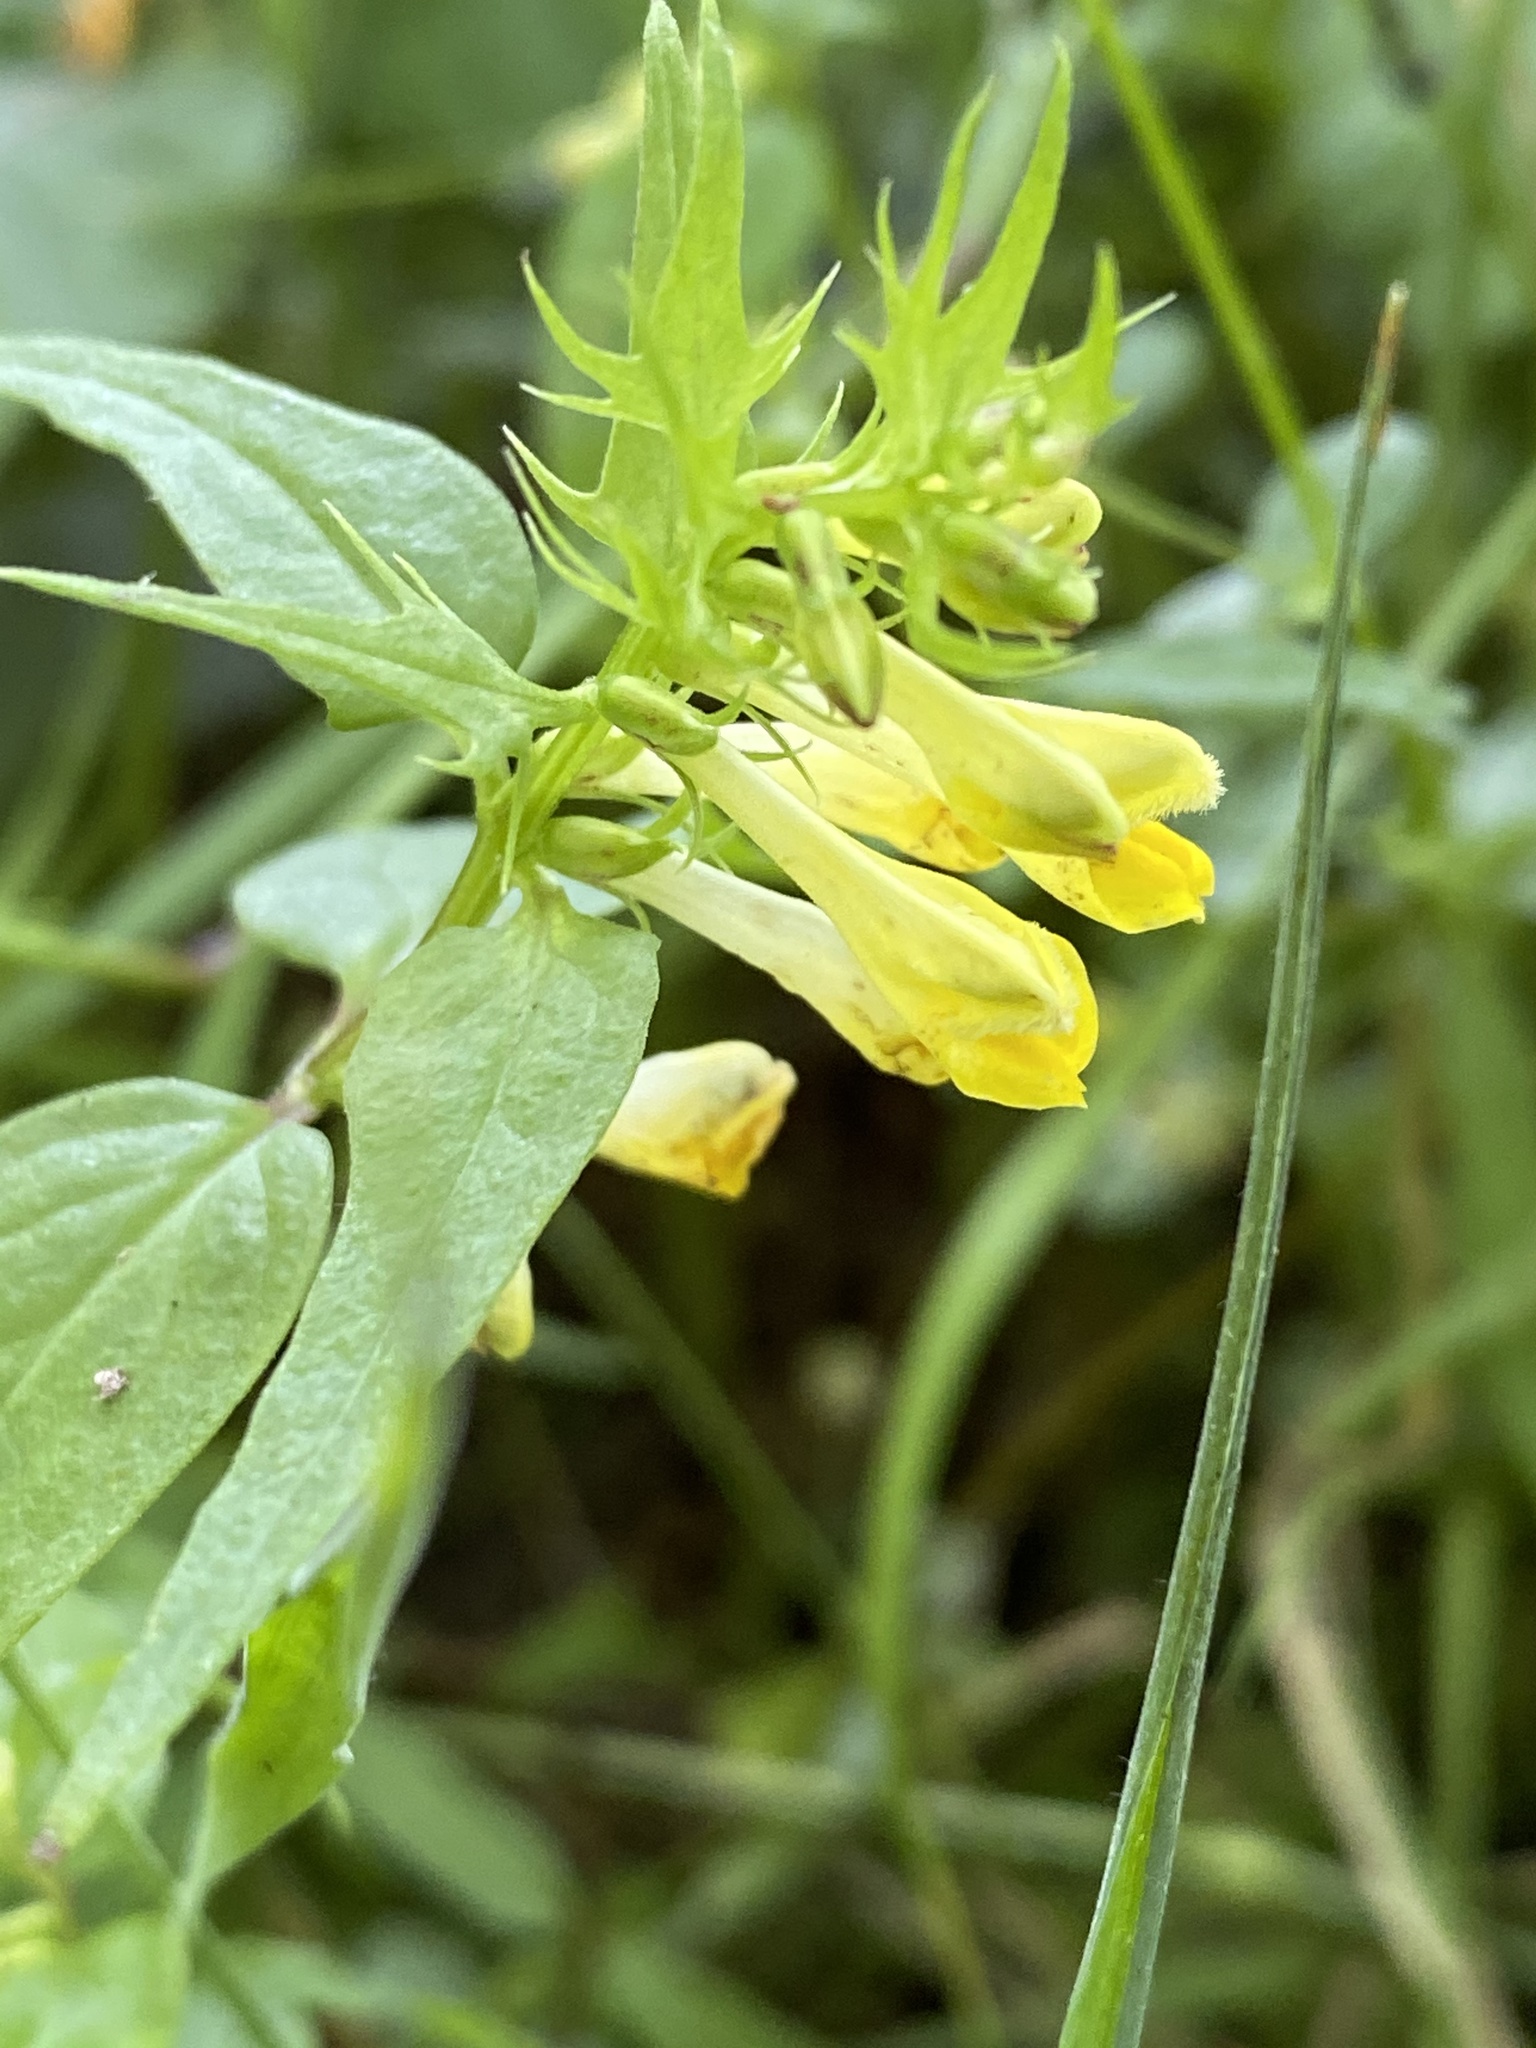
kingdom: Plantae
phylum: Tracheophyta
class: Magnoliopsida
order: Lamiales
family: Orobanchaceae
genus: Melampyrum
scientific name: Melampyrum pratense
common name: Common cow-wheat
